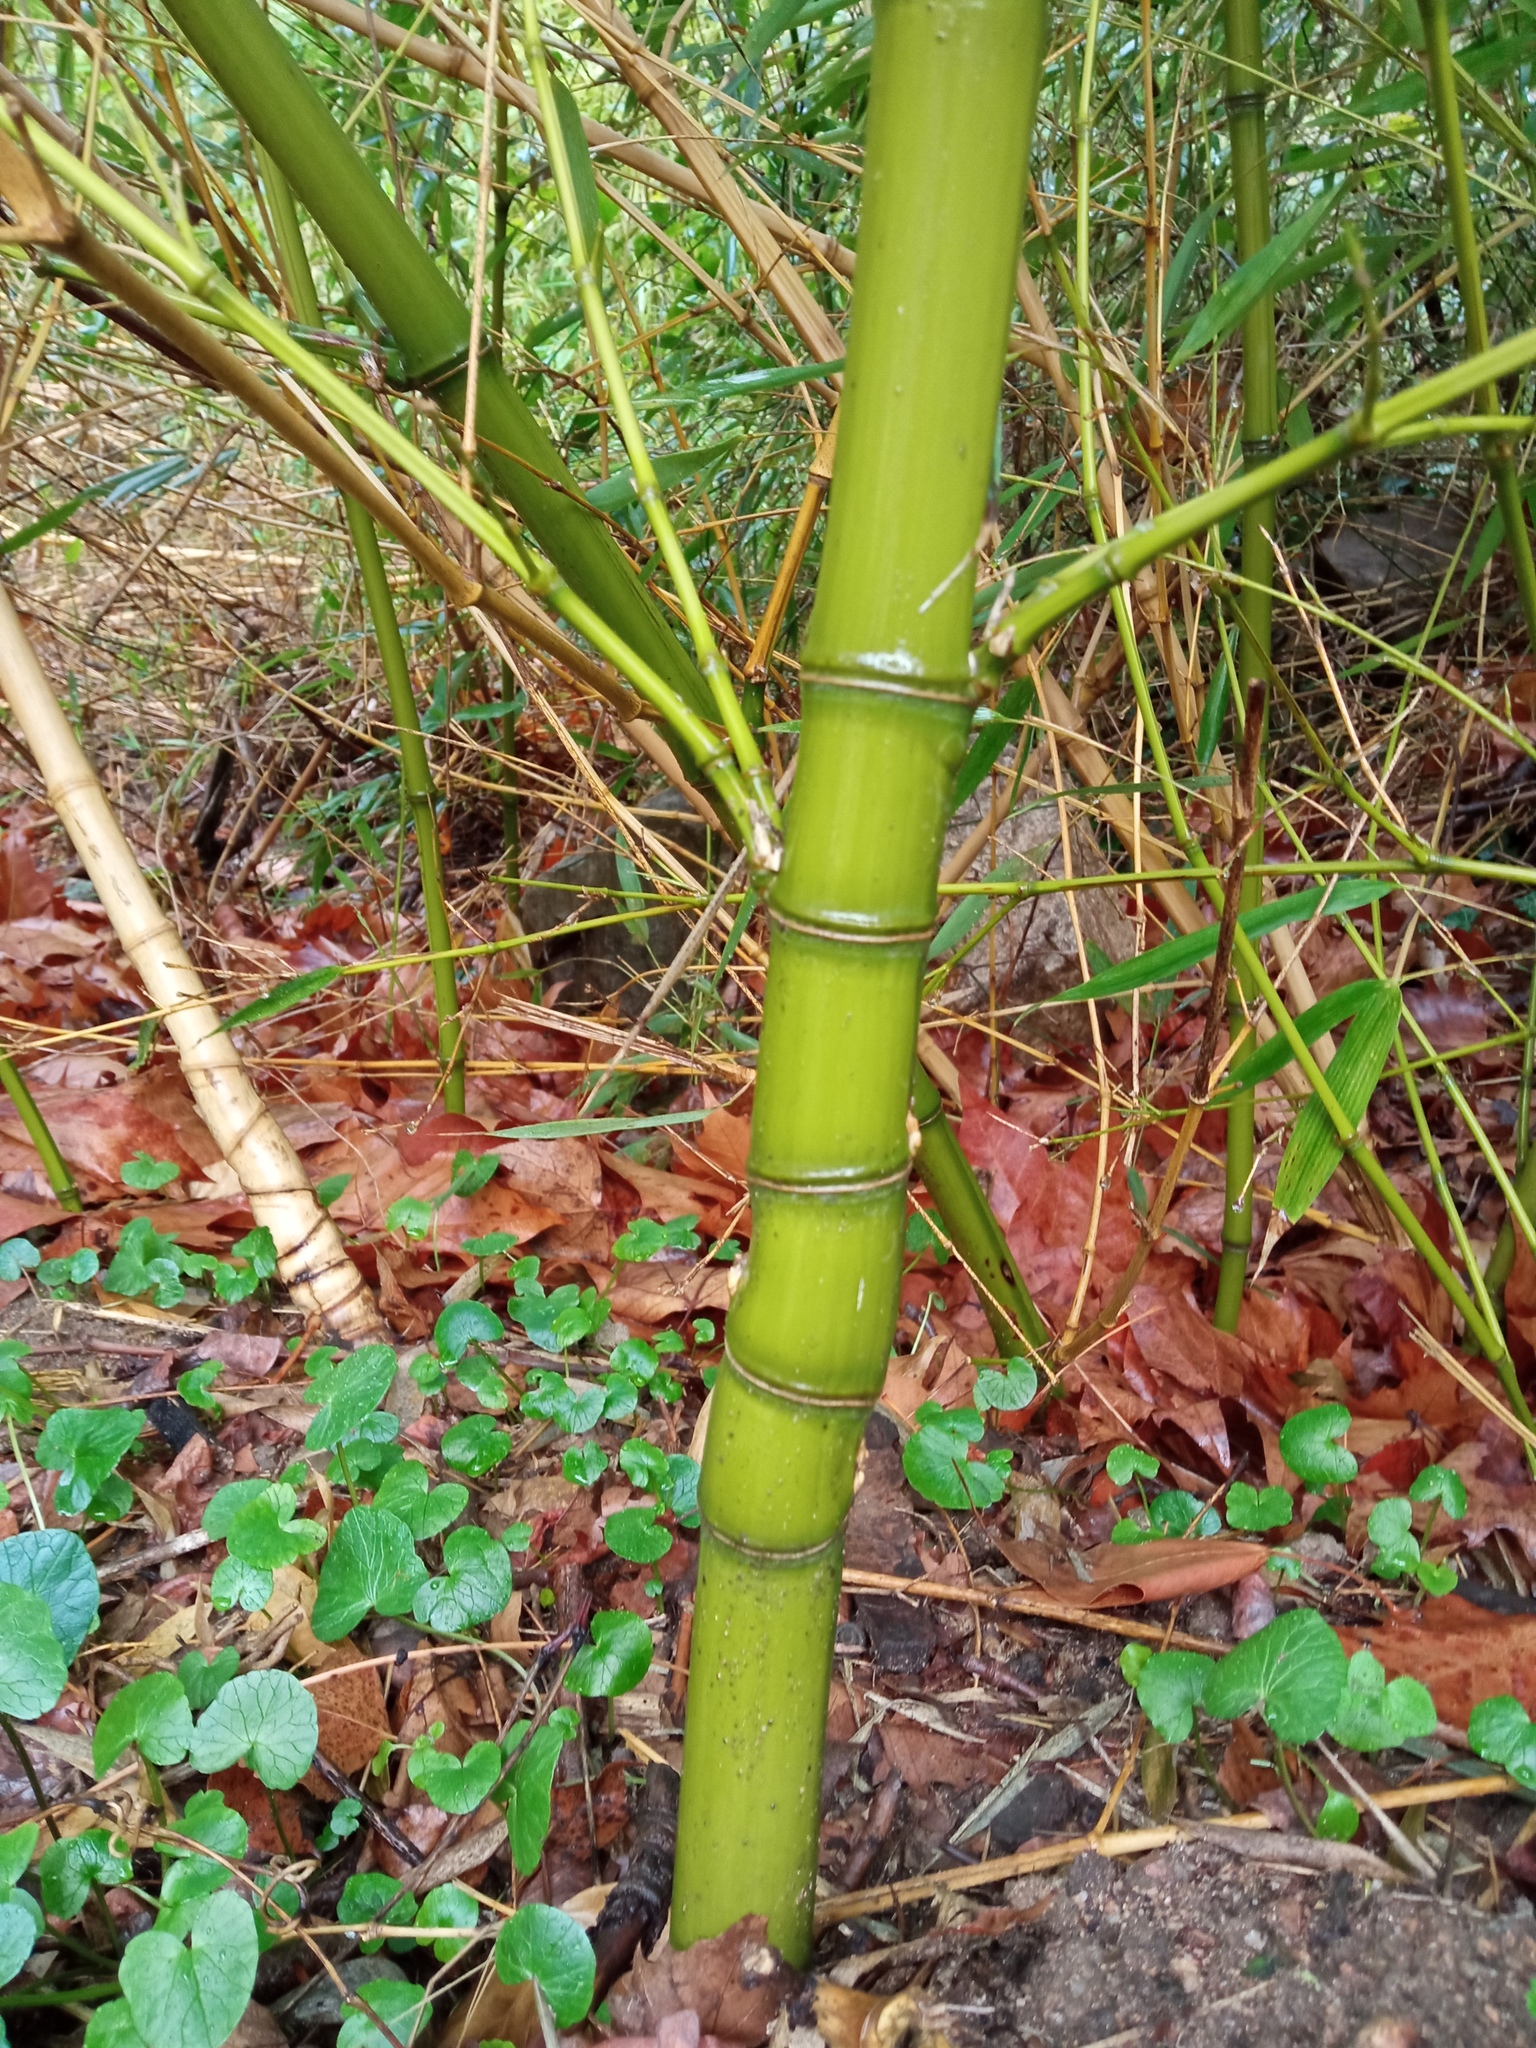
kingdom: Plantae
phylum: Tracheophyta
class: Liliopsida
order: Poales
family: Poaceae
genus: Phyllostachys
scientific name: Phyllostachys aurea
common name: Golden bamboo
